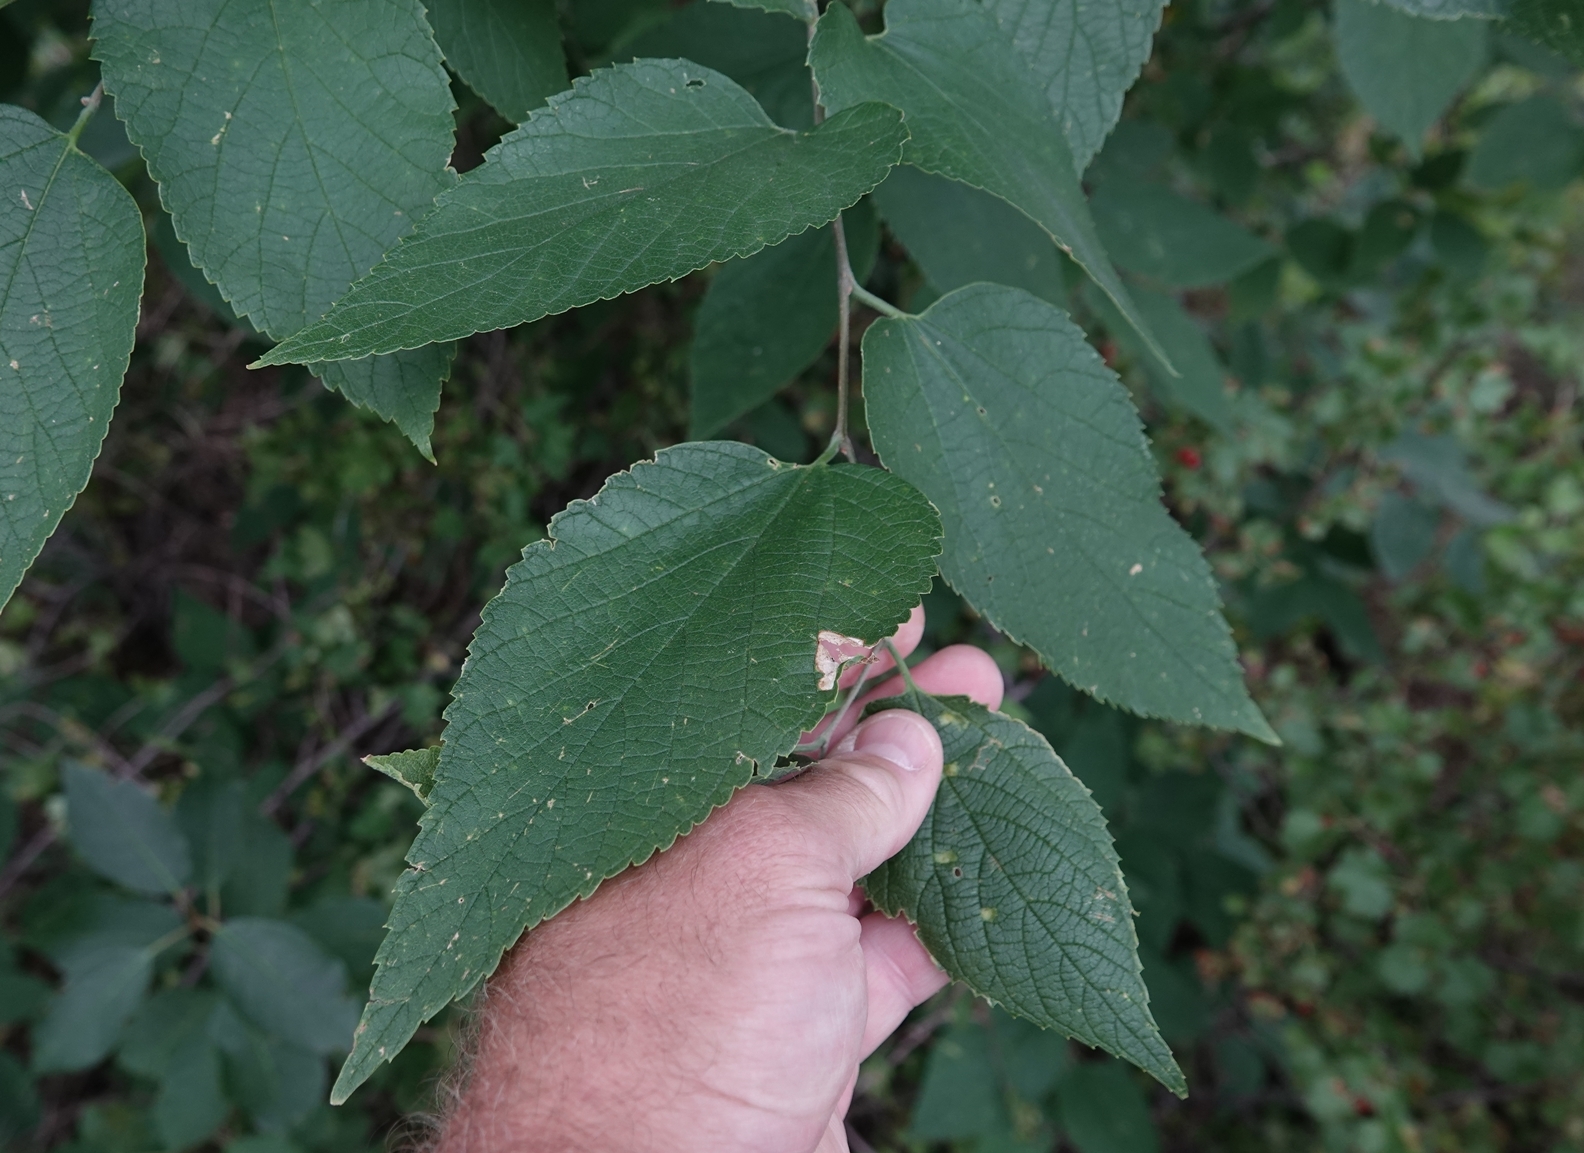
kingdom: Plantae
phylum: Tracheophyta
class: Magnoliopsida
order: Rosales
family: Cannabaceae
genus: Celtis
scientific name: Celtis occidentalis
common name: Common hackberry
